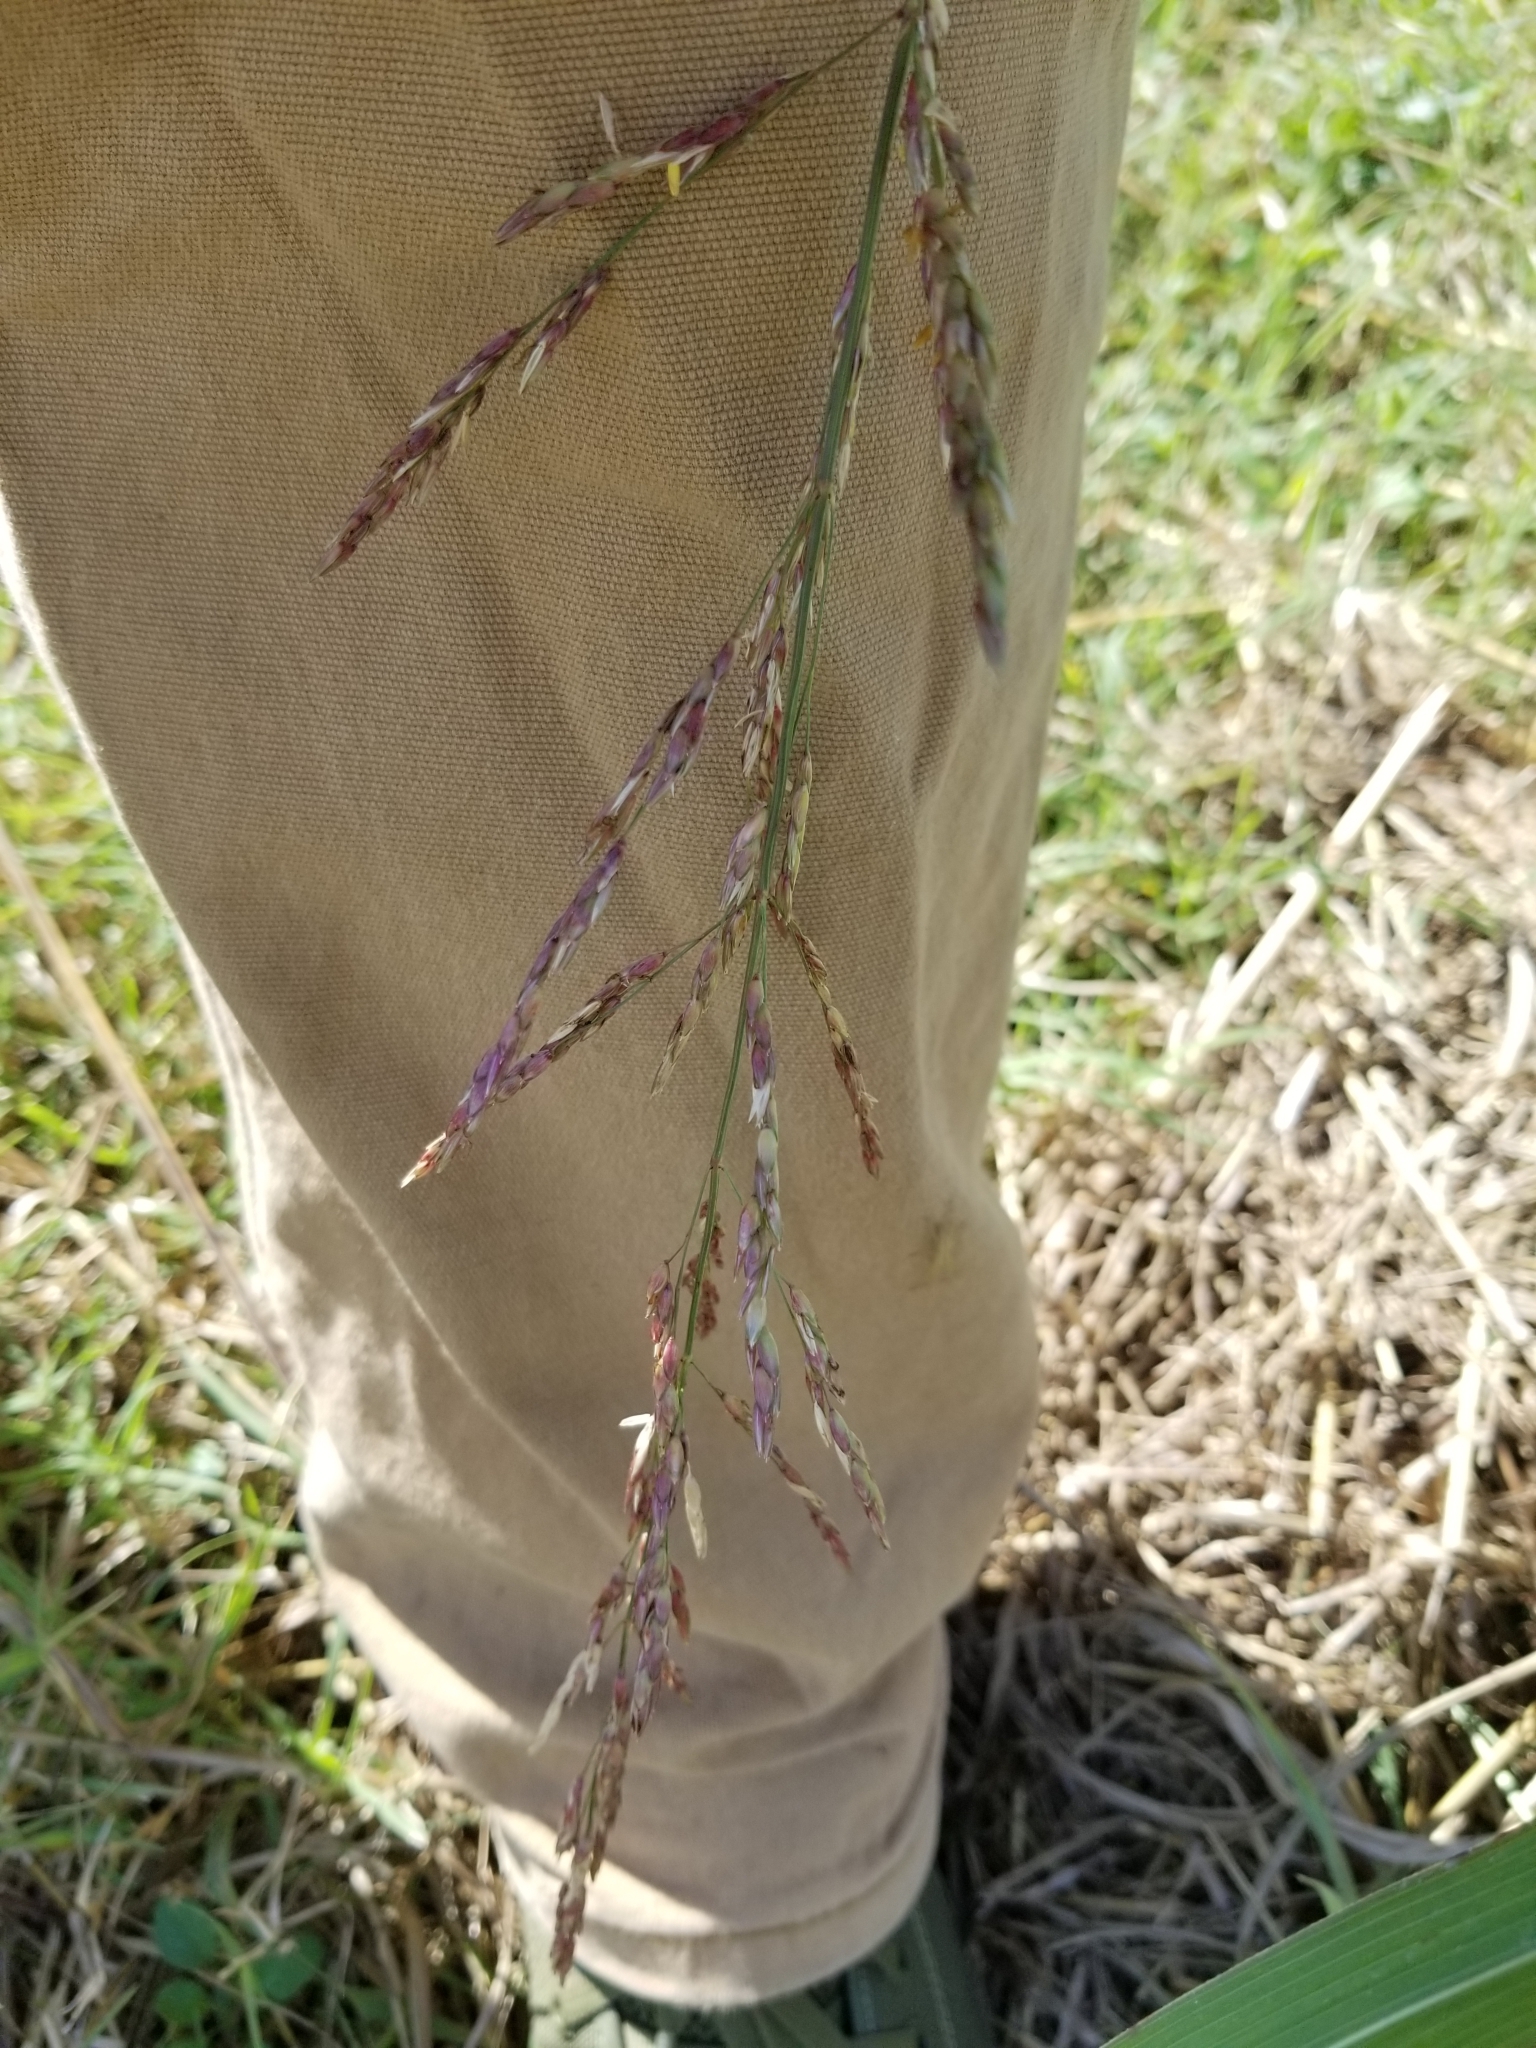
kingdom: Plantae
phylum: Tracheophyta
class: Liliopsida
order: Poales
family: Poaceae
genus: Sorghum
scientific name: Sorghum halepense
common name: Johnson-grass
